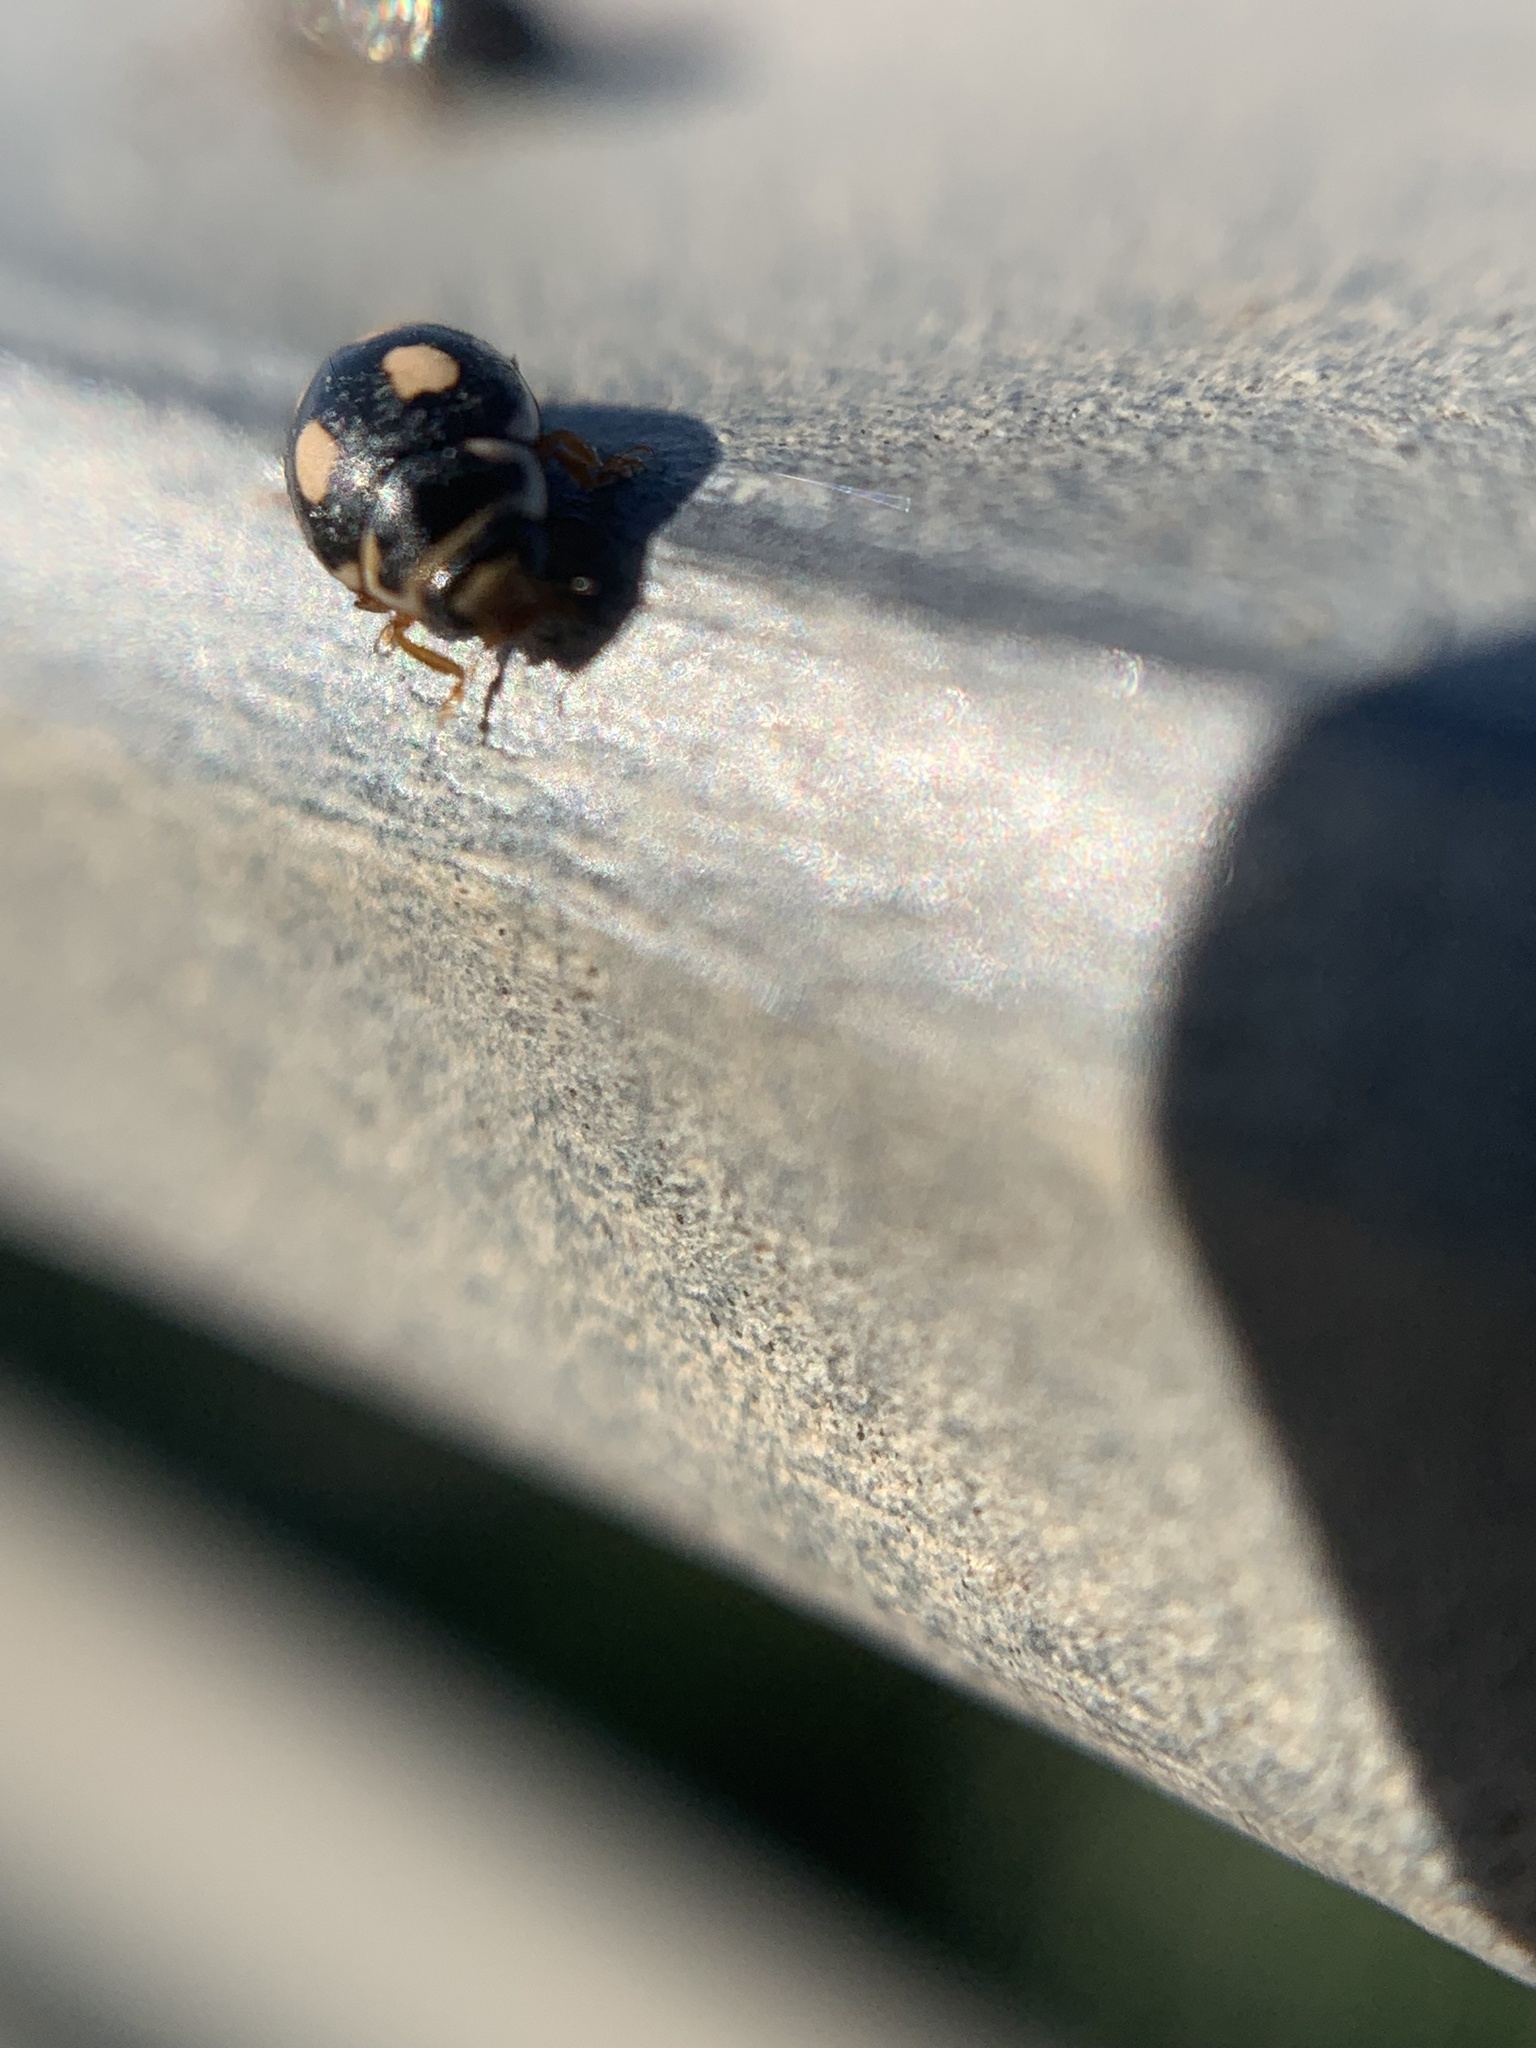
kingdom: Animalia
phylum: Arthropoda
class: Insecta
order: Coleoptera
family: Coccinellidae
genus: Hyperaspis
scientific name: Hyperaspis festiva
